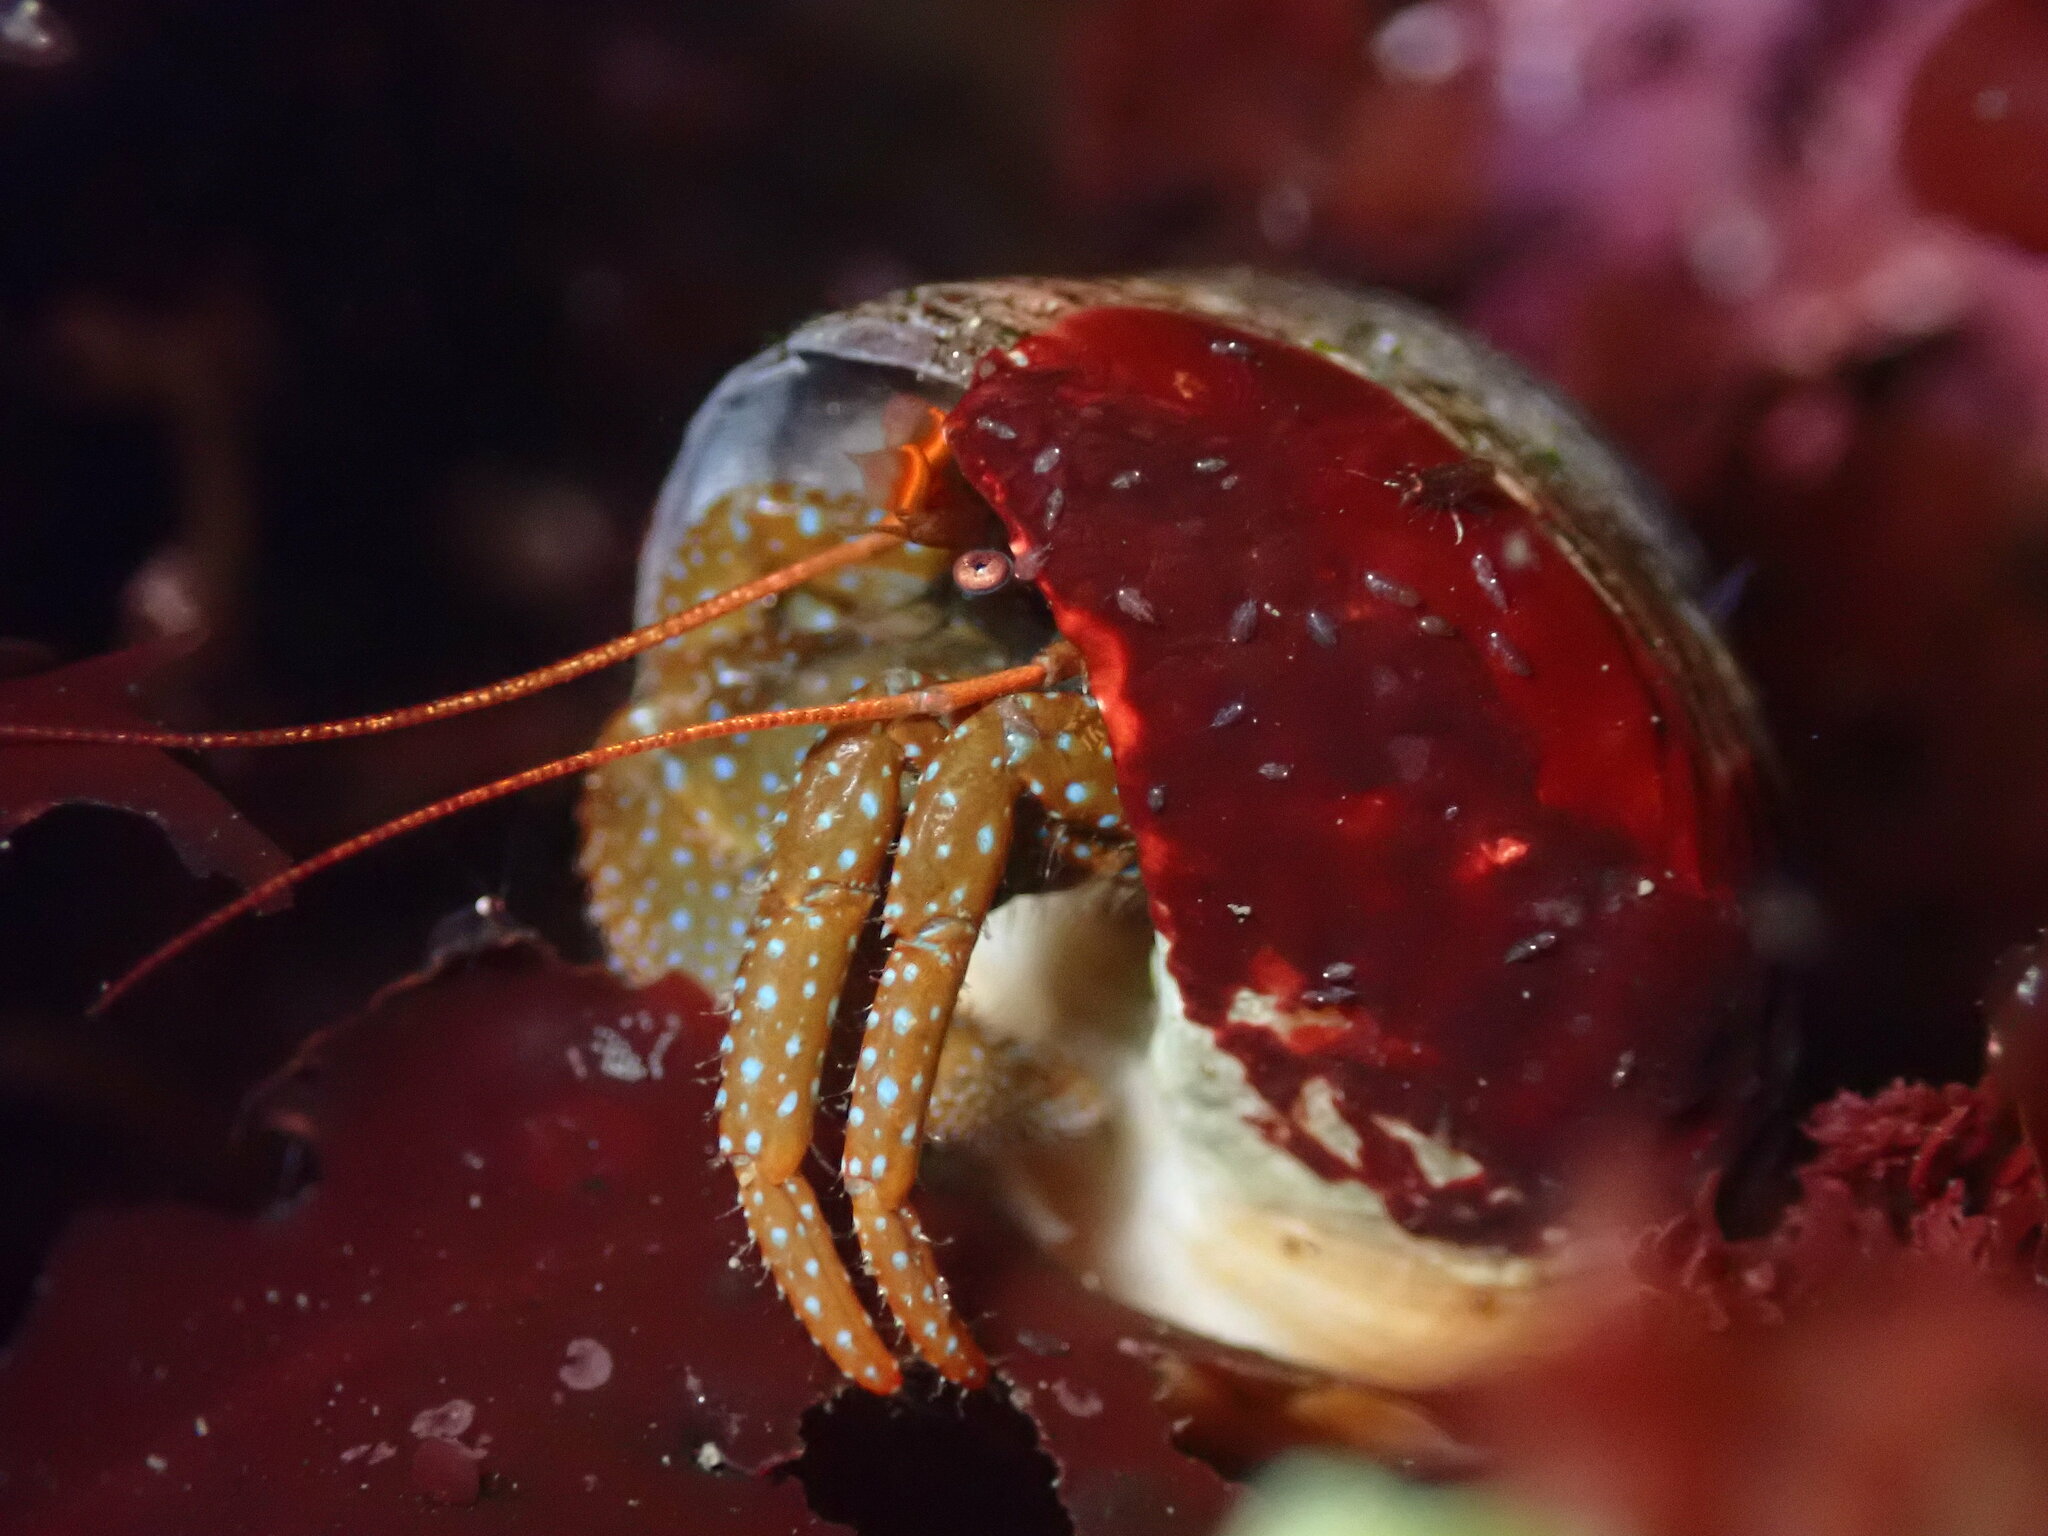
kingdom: Animalia
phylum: Arthropoda
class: Malacostraca
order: Decapoda
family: Paguridae
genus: Pagurus
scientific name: Pagurus granosimanus
